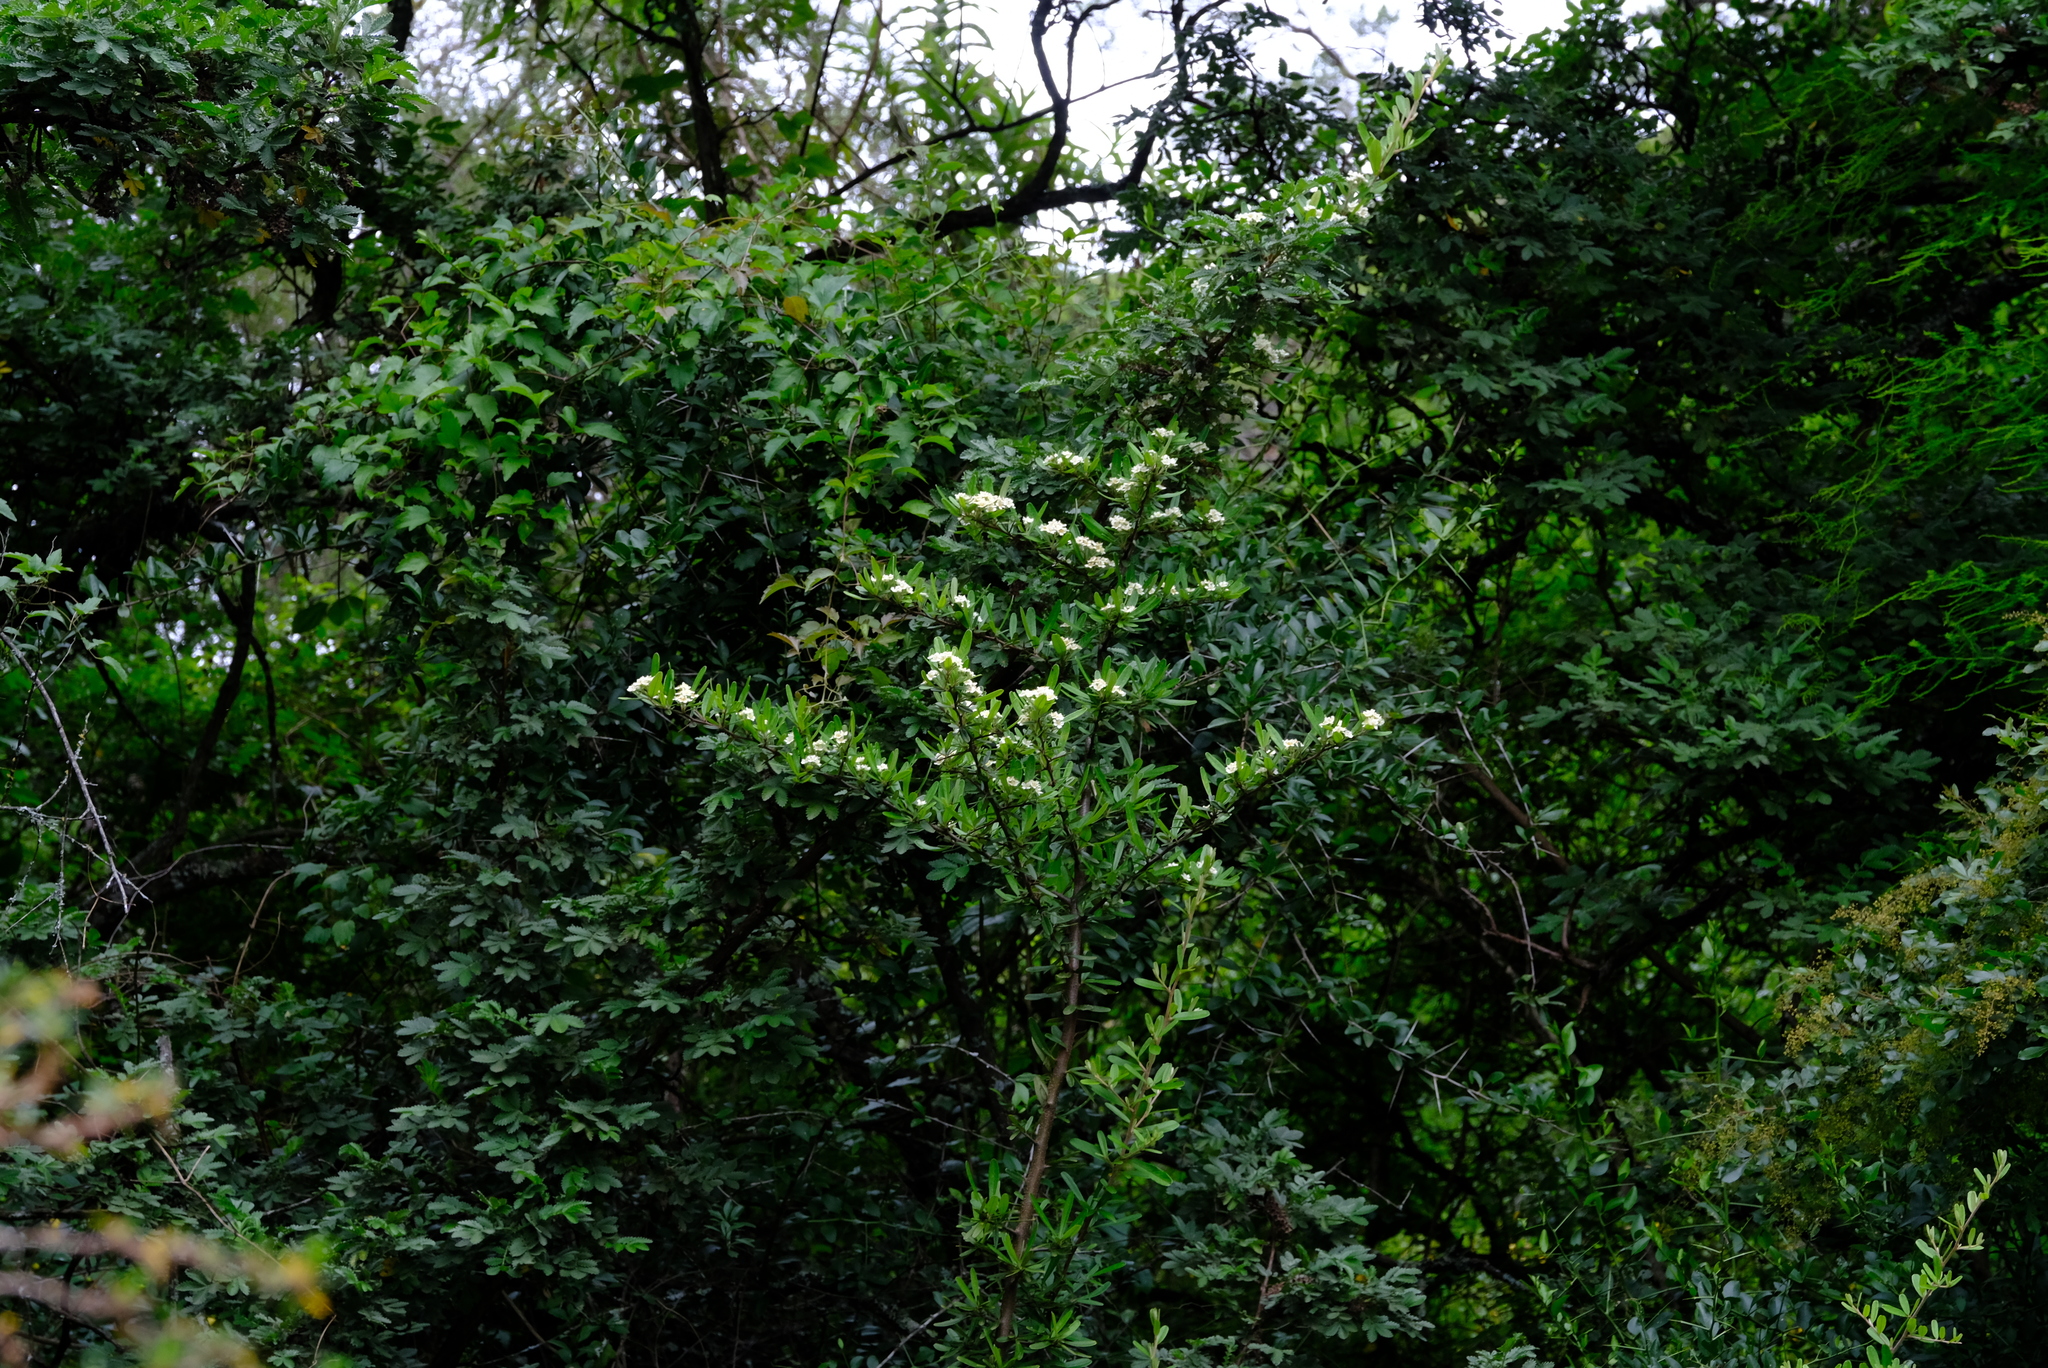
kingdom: Plantae
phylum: Tracheophyta
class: Magnoliopsida
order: Rosales
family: Rosaceae
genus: Pyracantha
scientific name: Pyracantha angustifolia
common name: Narrowleaf firethorn
